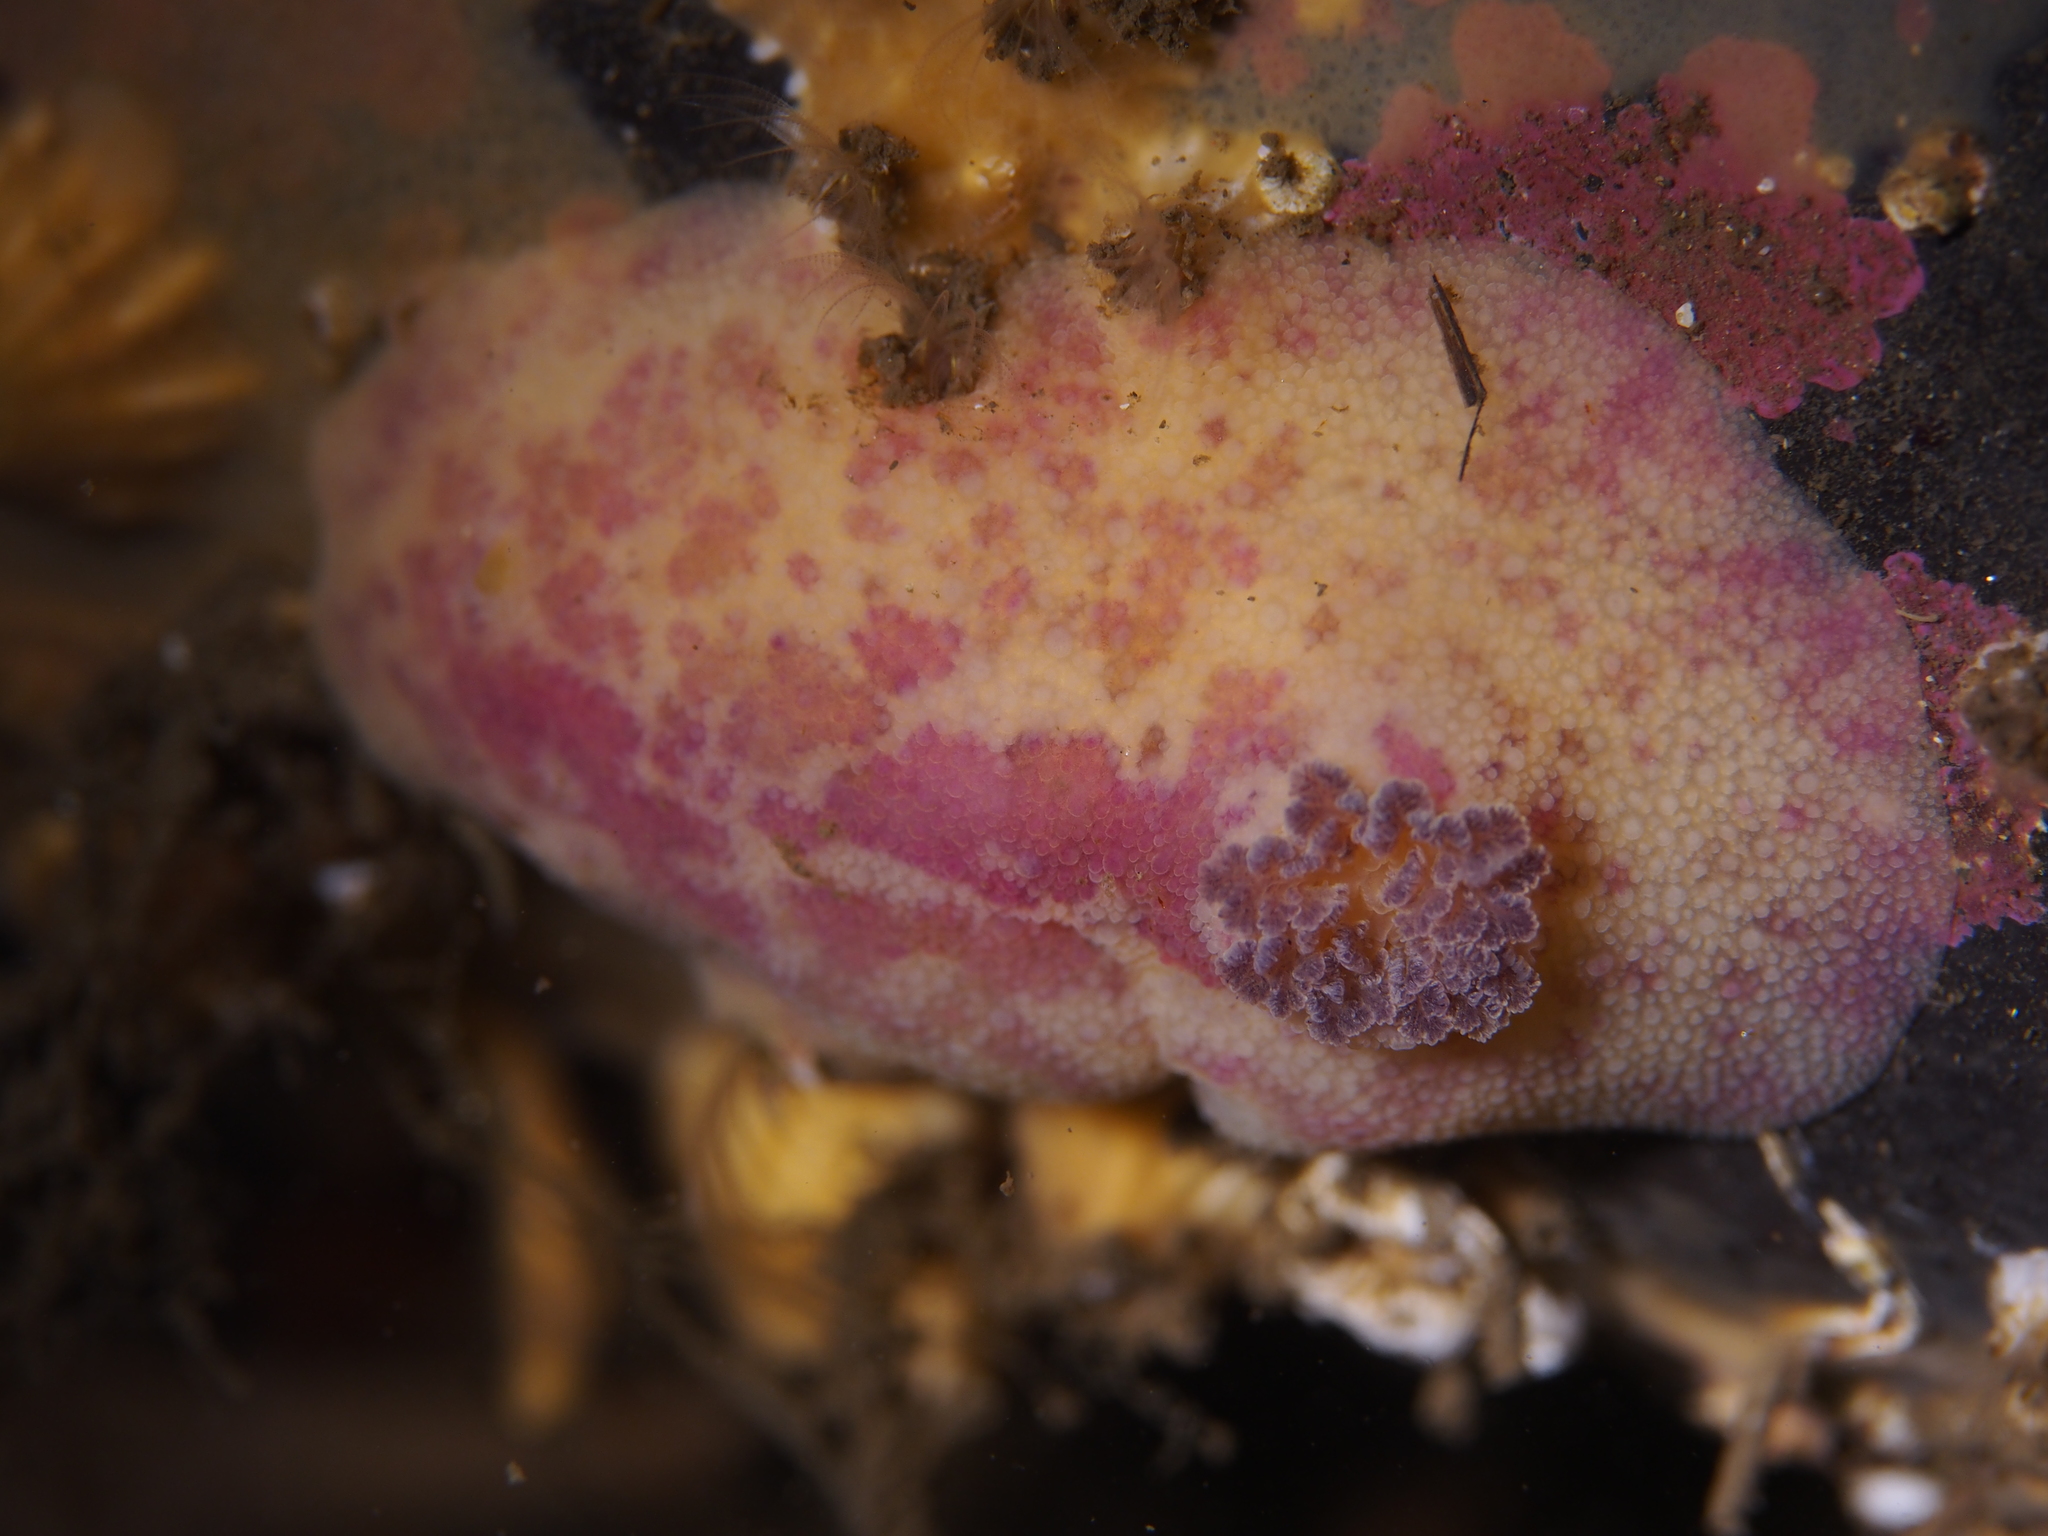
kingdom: Animalia
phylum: Mollusca
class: Gastropoda
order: Nudibranchia
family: Dorididae
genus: Doris
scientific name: Doris pseudoargus
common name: Sea lemon
